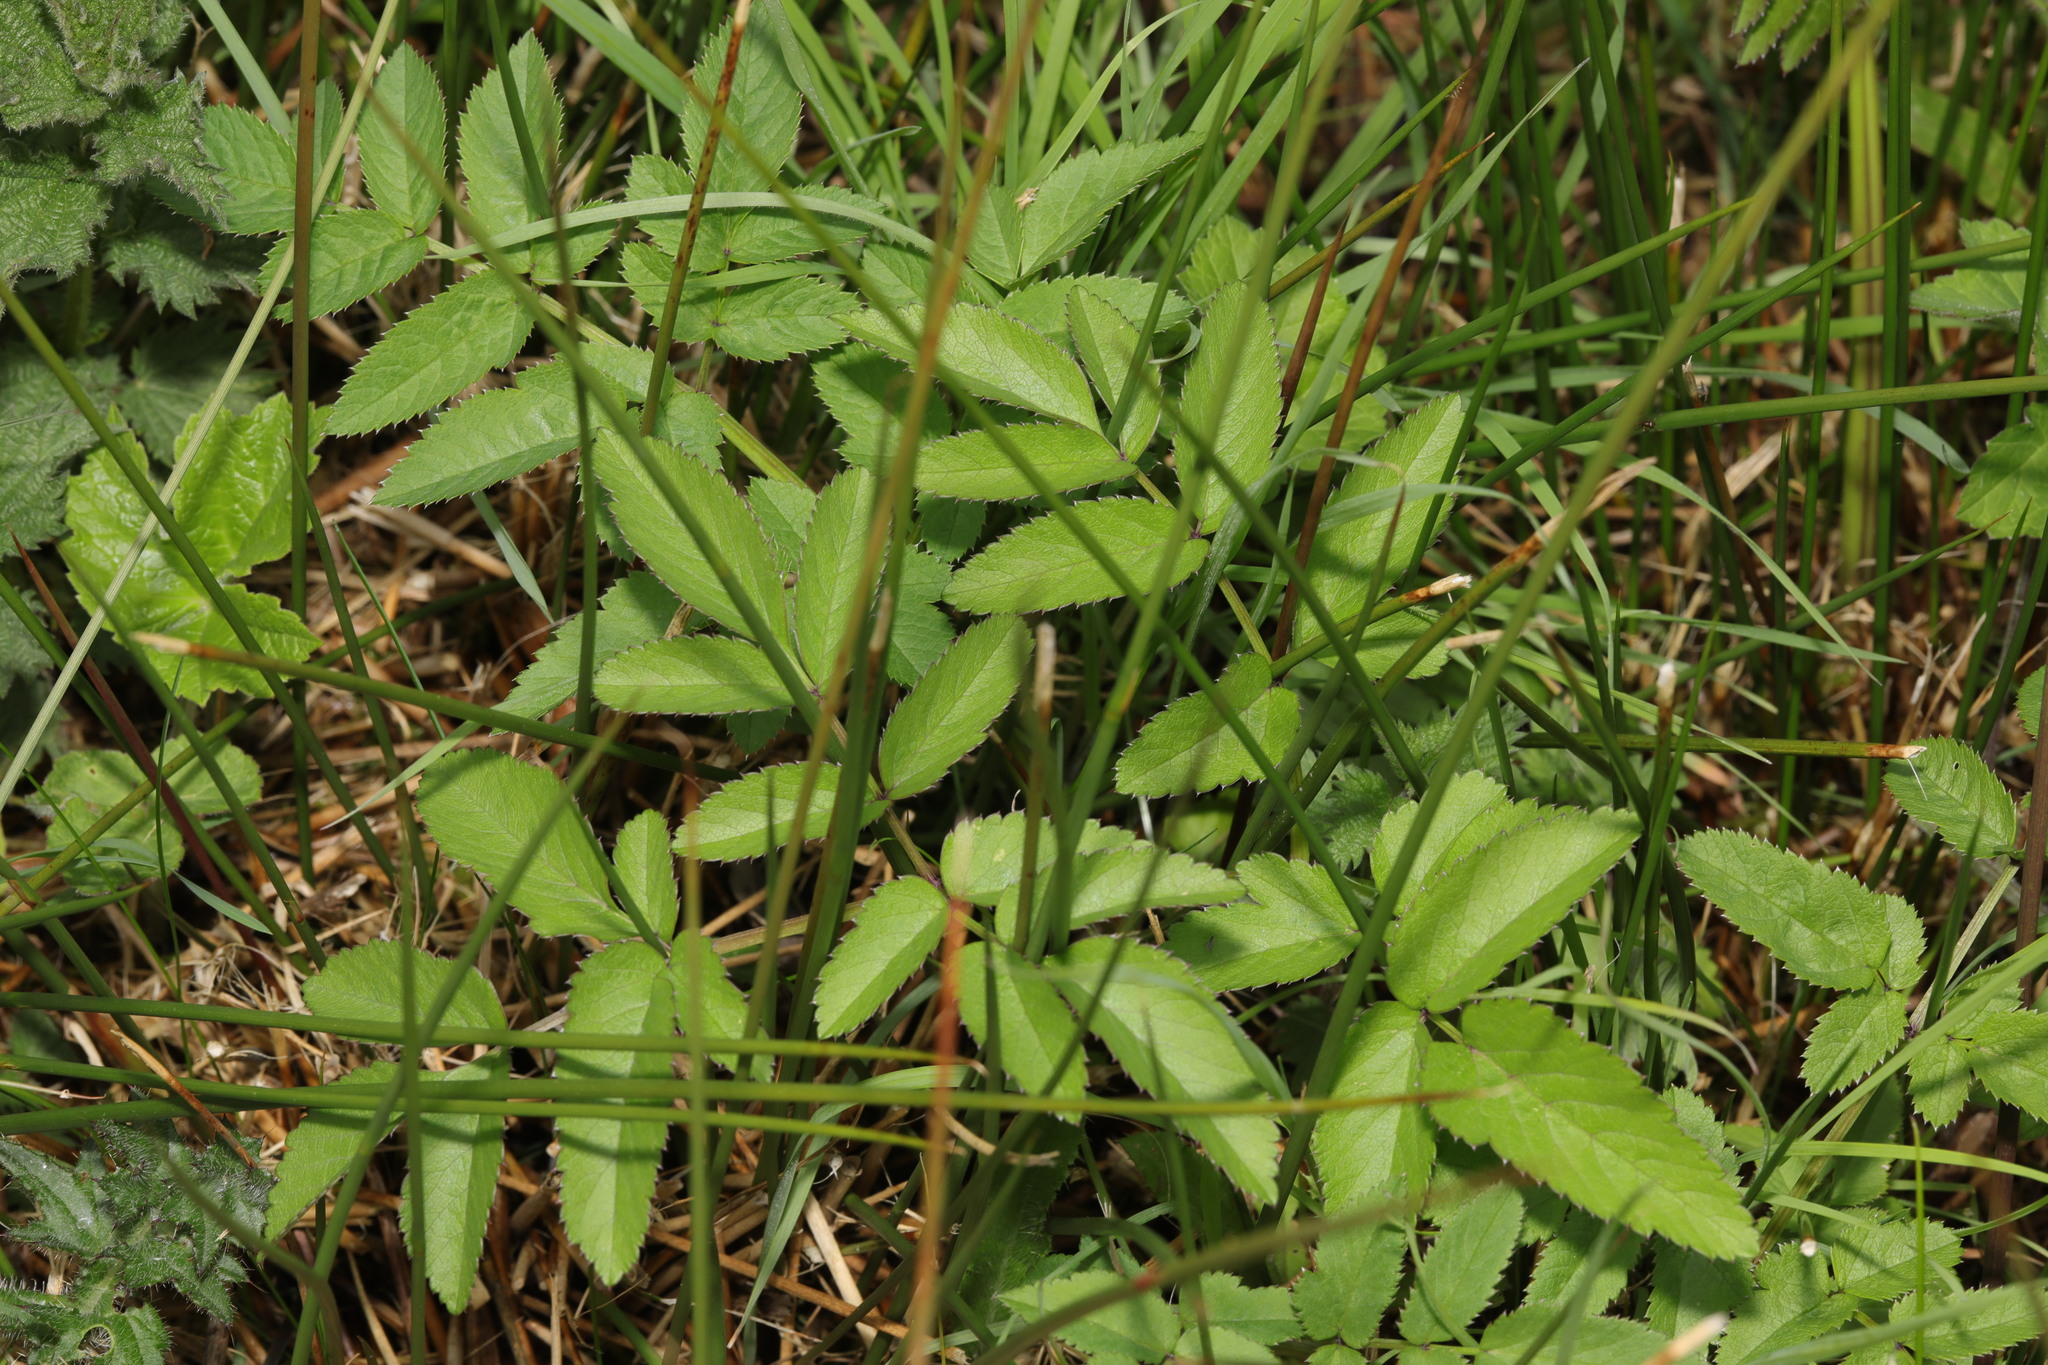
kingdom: Plantae
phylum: Tracheophyta
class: Magnoliopsida
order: Apiales
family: Apiaceae
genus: Angelica
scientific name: Angelica sylvestris
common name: Wild angelica
